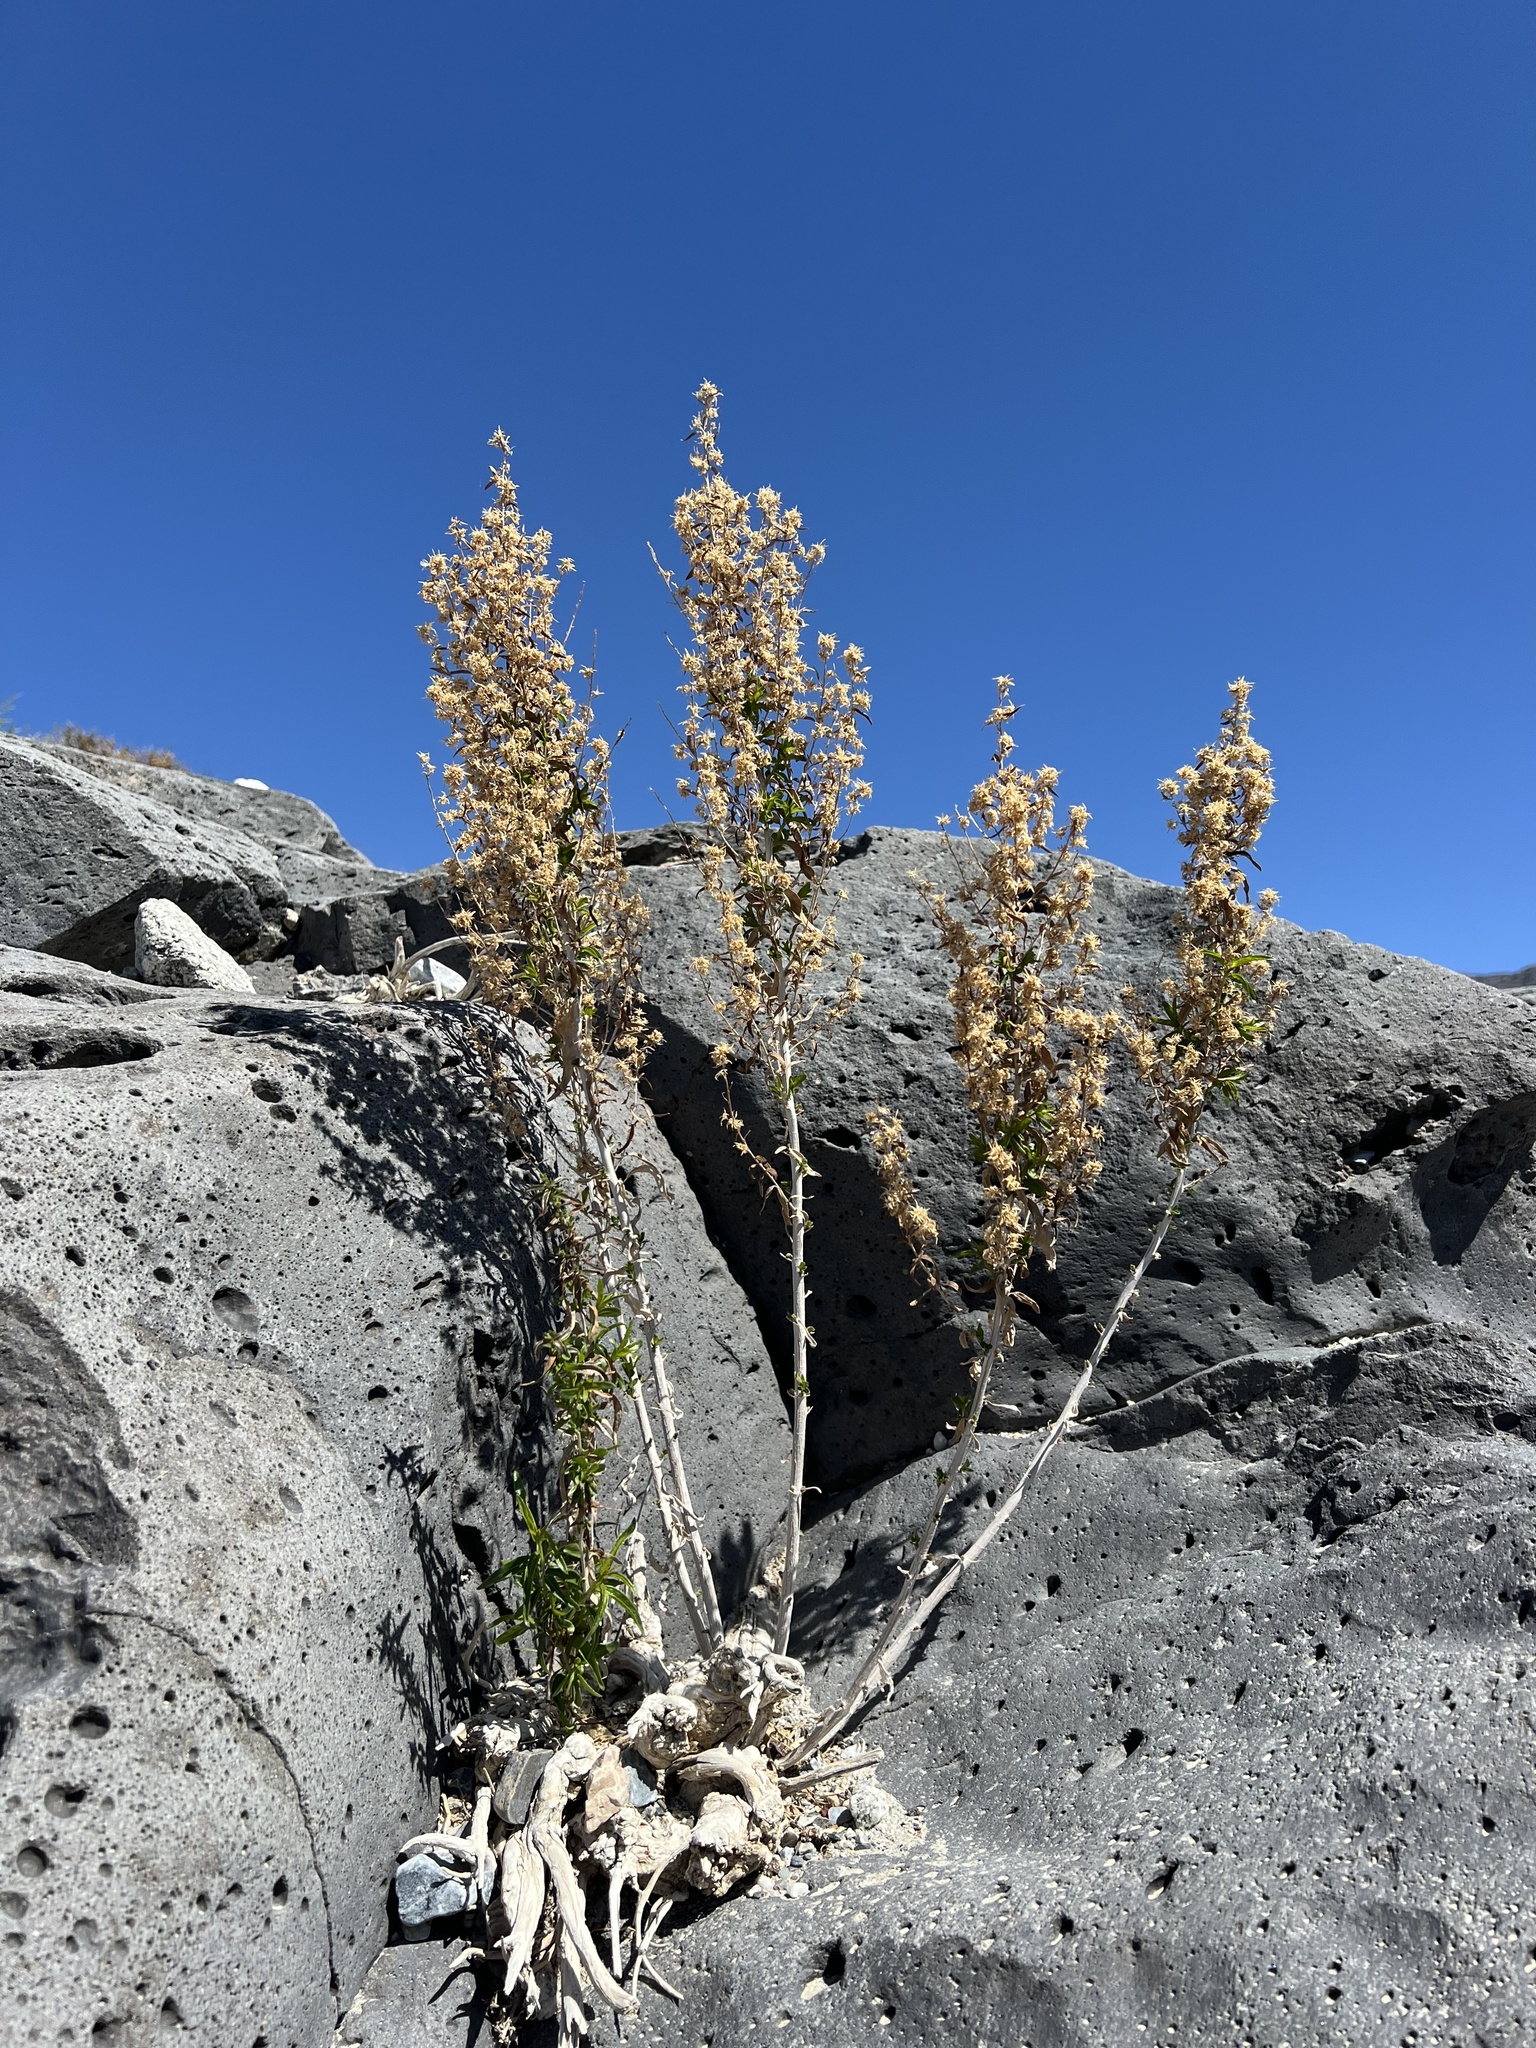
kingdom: Plantae
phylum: Tracheophyta
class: Magnoliopsida
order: Asterales
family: Asteraceae
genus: Brickellia
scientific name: Brickellia longifolia
